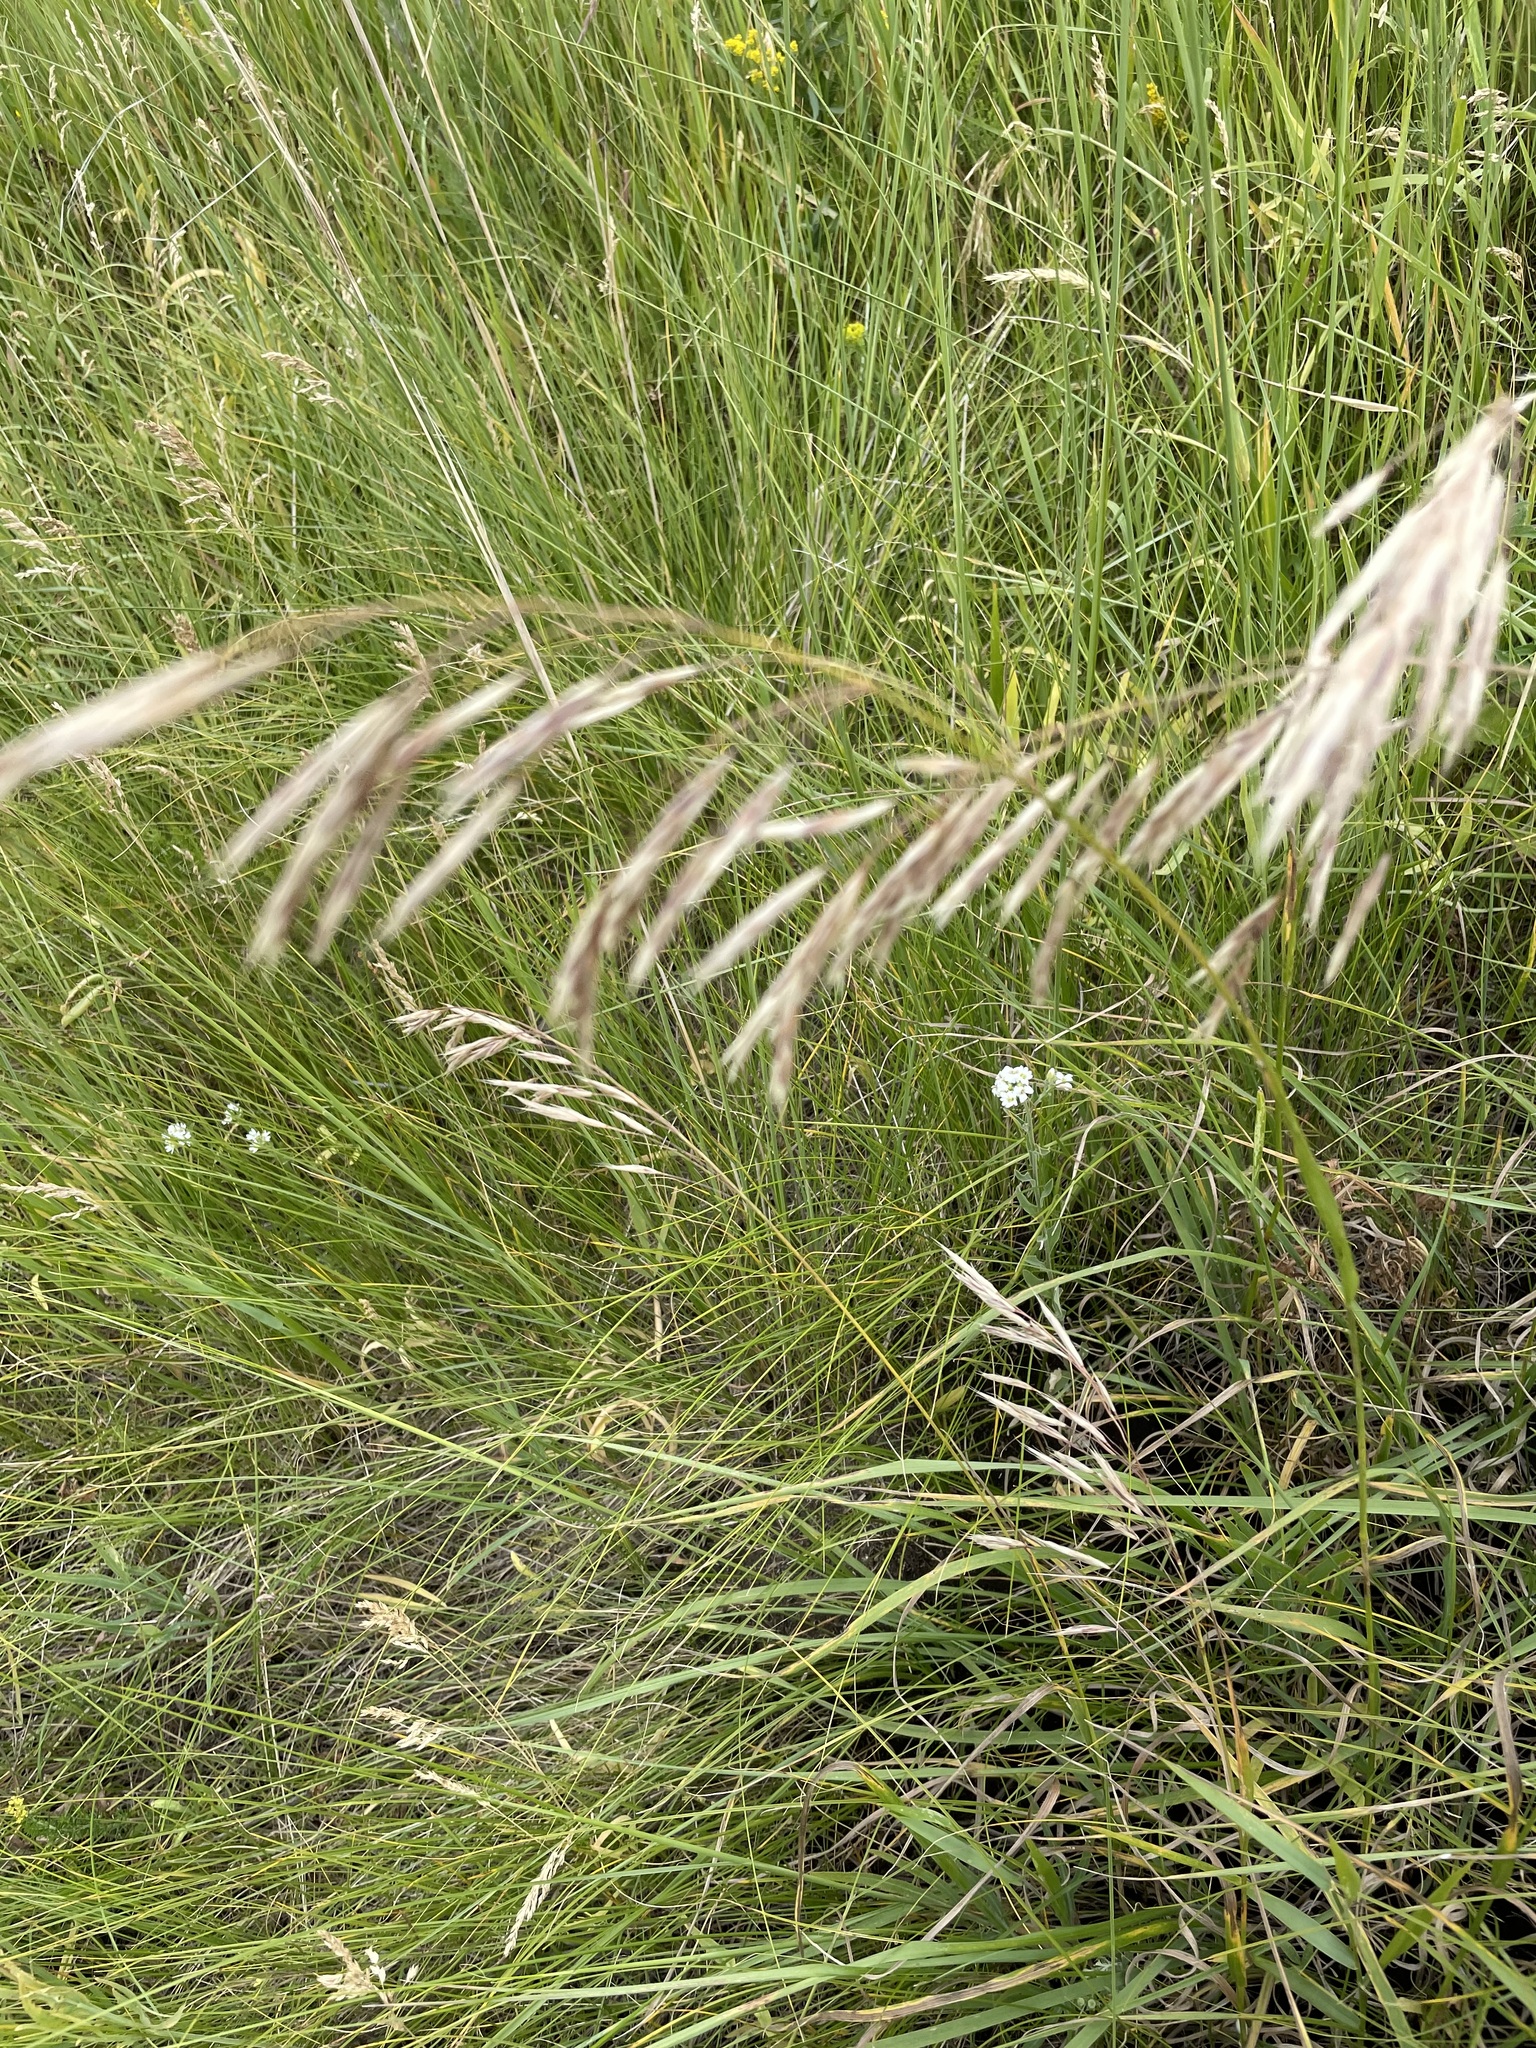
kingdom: Plantae
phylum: Tracheophyta
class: Liliopsida
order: Poales
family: Poaceae
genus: Bromus
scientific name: Bromus inermis
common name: Smooth brome
